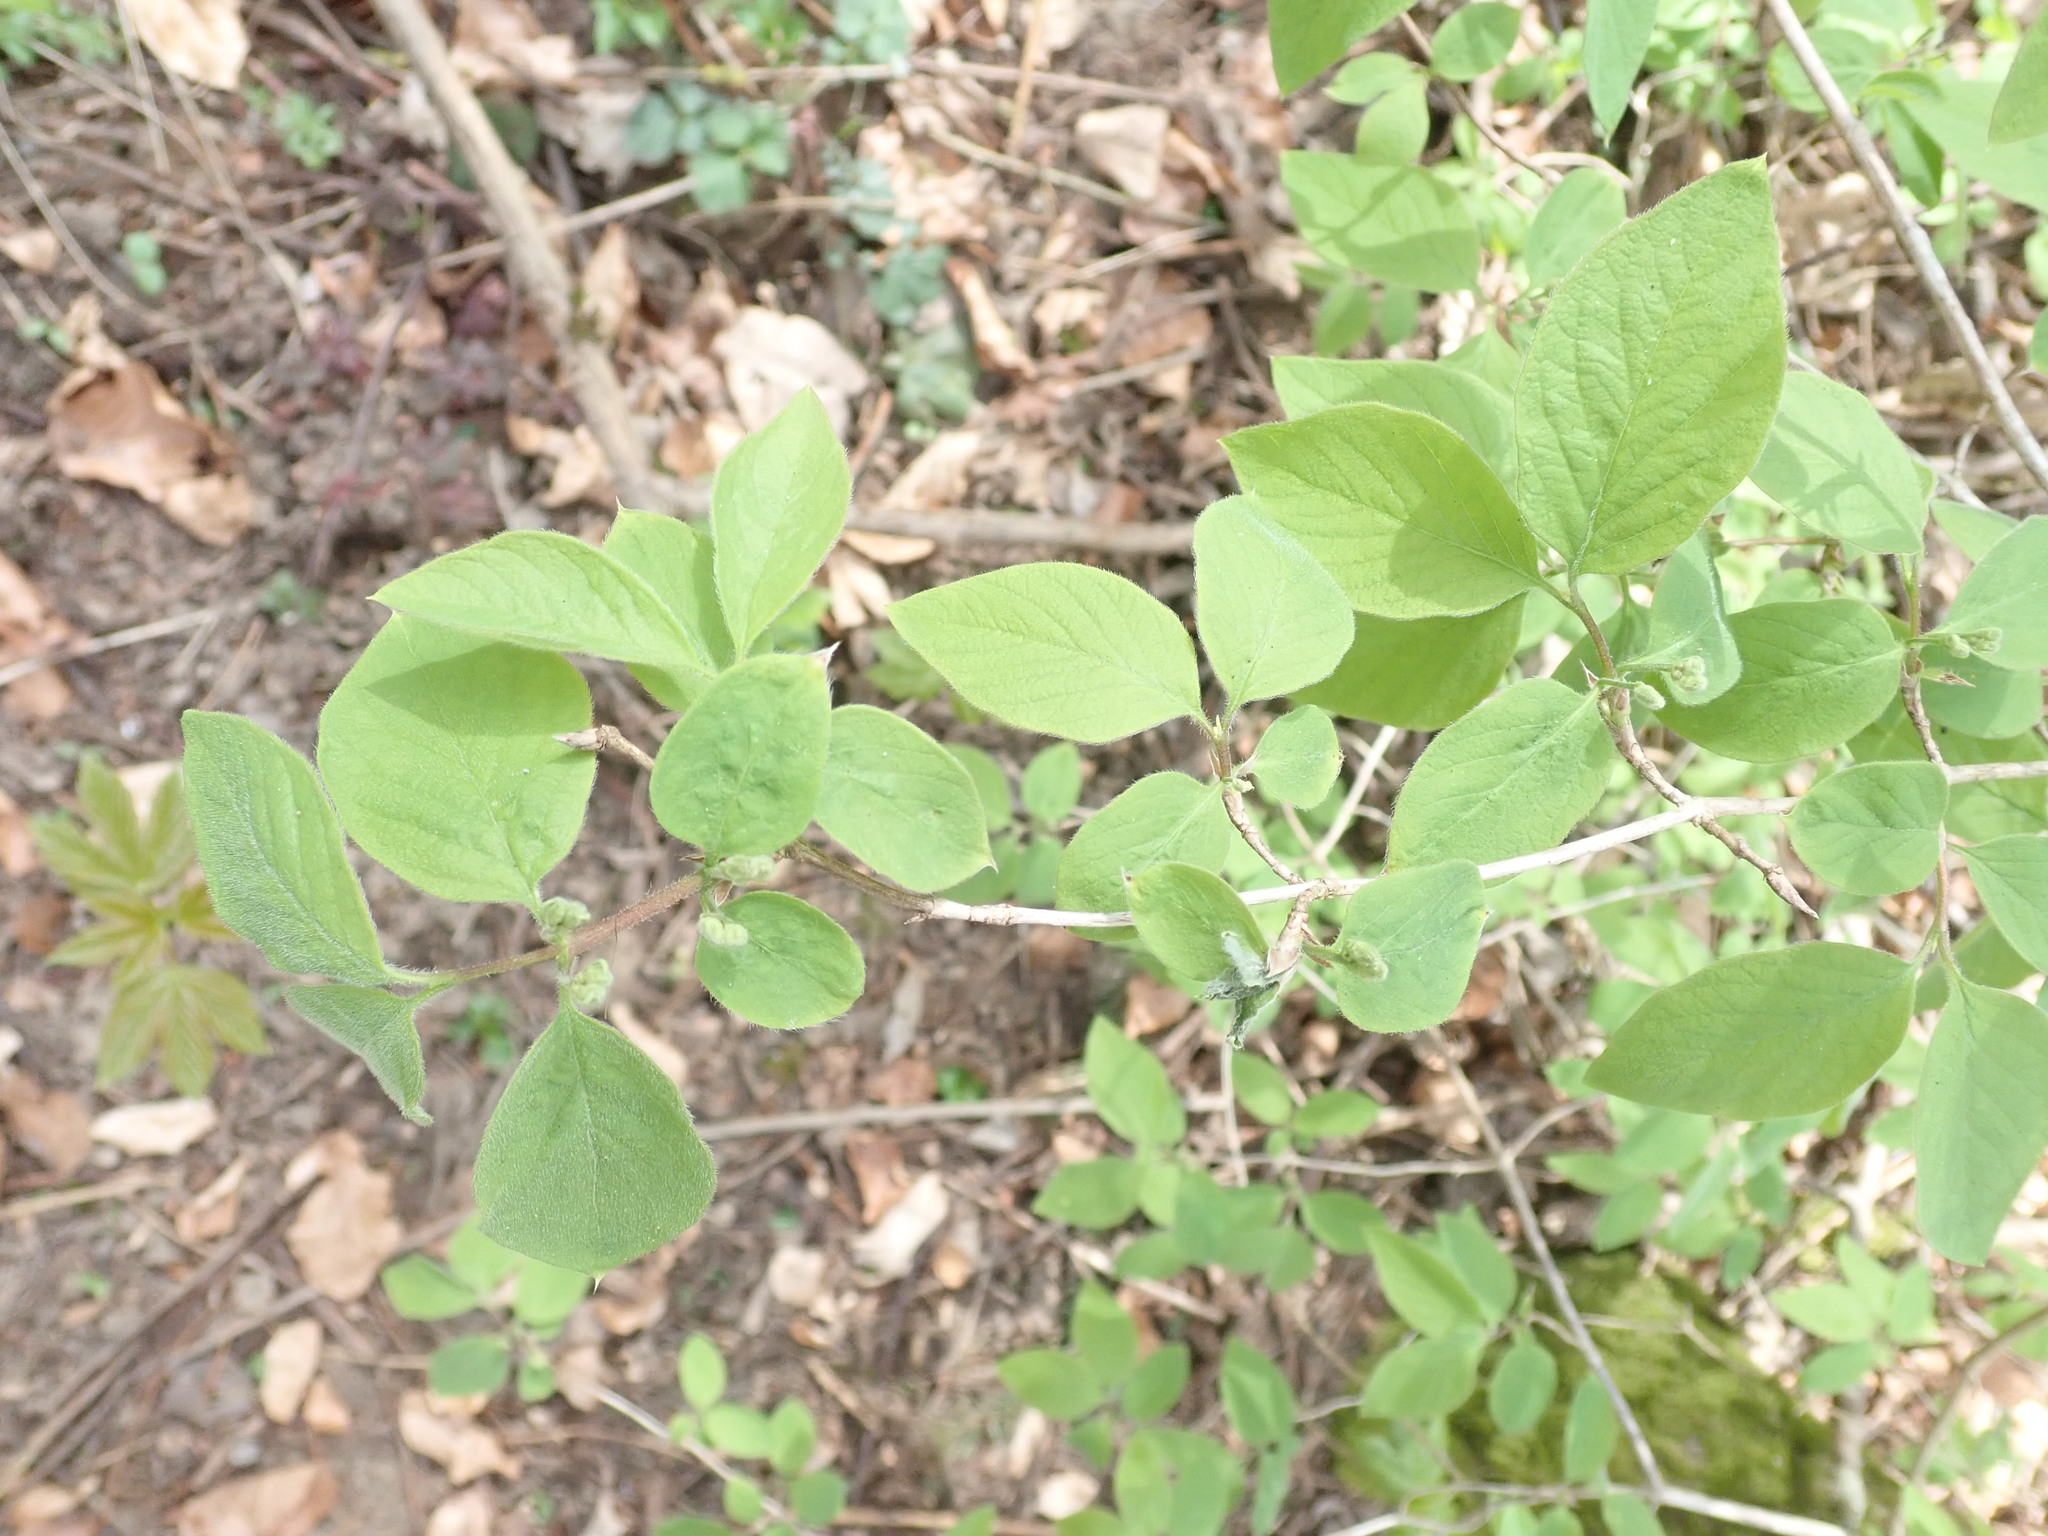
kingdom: Plantae
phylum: Tracheophyta
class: Magnoliopsida
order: Dipsacales
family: Caprifoliaceae
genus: Lonicera
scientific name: Lonicera xylosteum
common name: Fly honeysuckle
